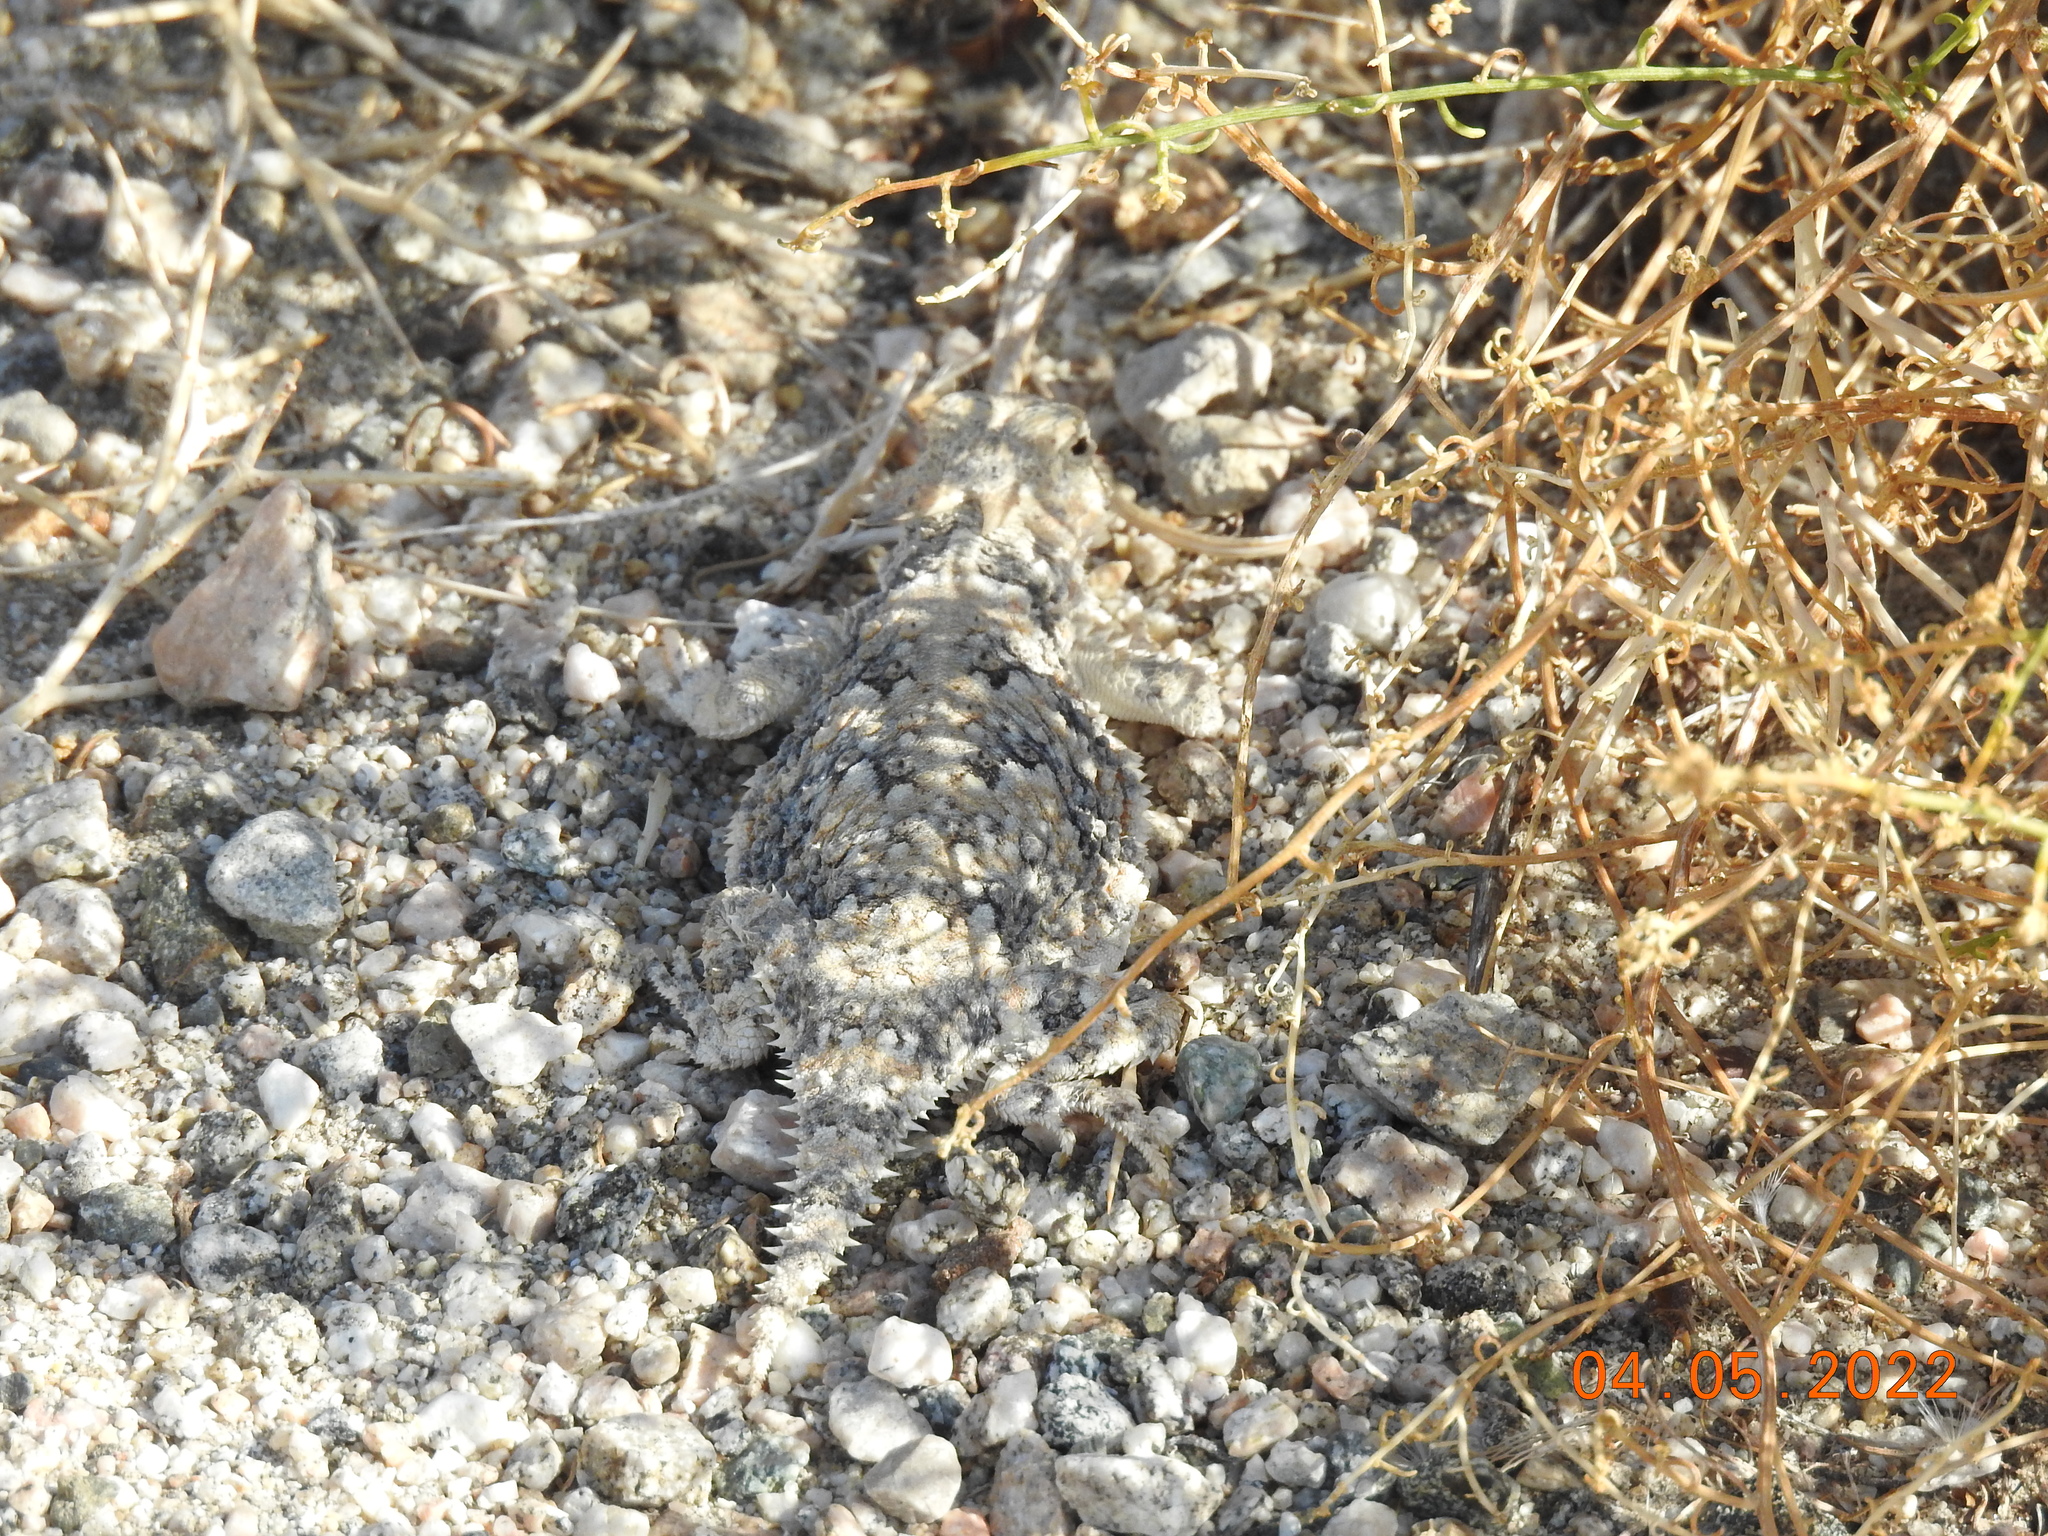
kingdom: Animalia
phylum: Chordata
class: Squamata
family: Phrynosomatidae
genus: Phrynosoma
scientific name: Phrynosoma platyrhinos
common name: Desert horned lizard
